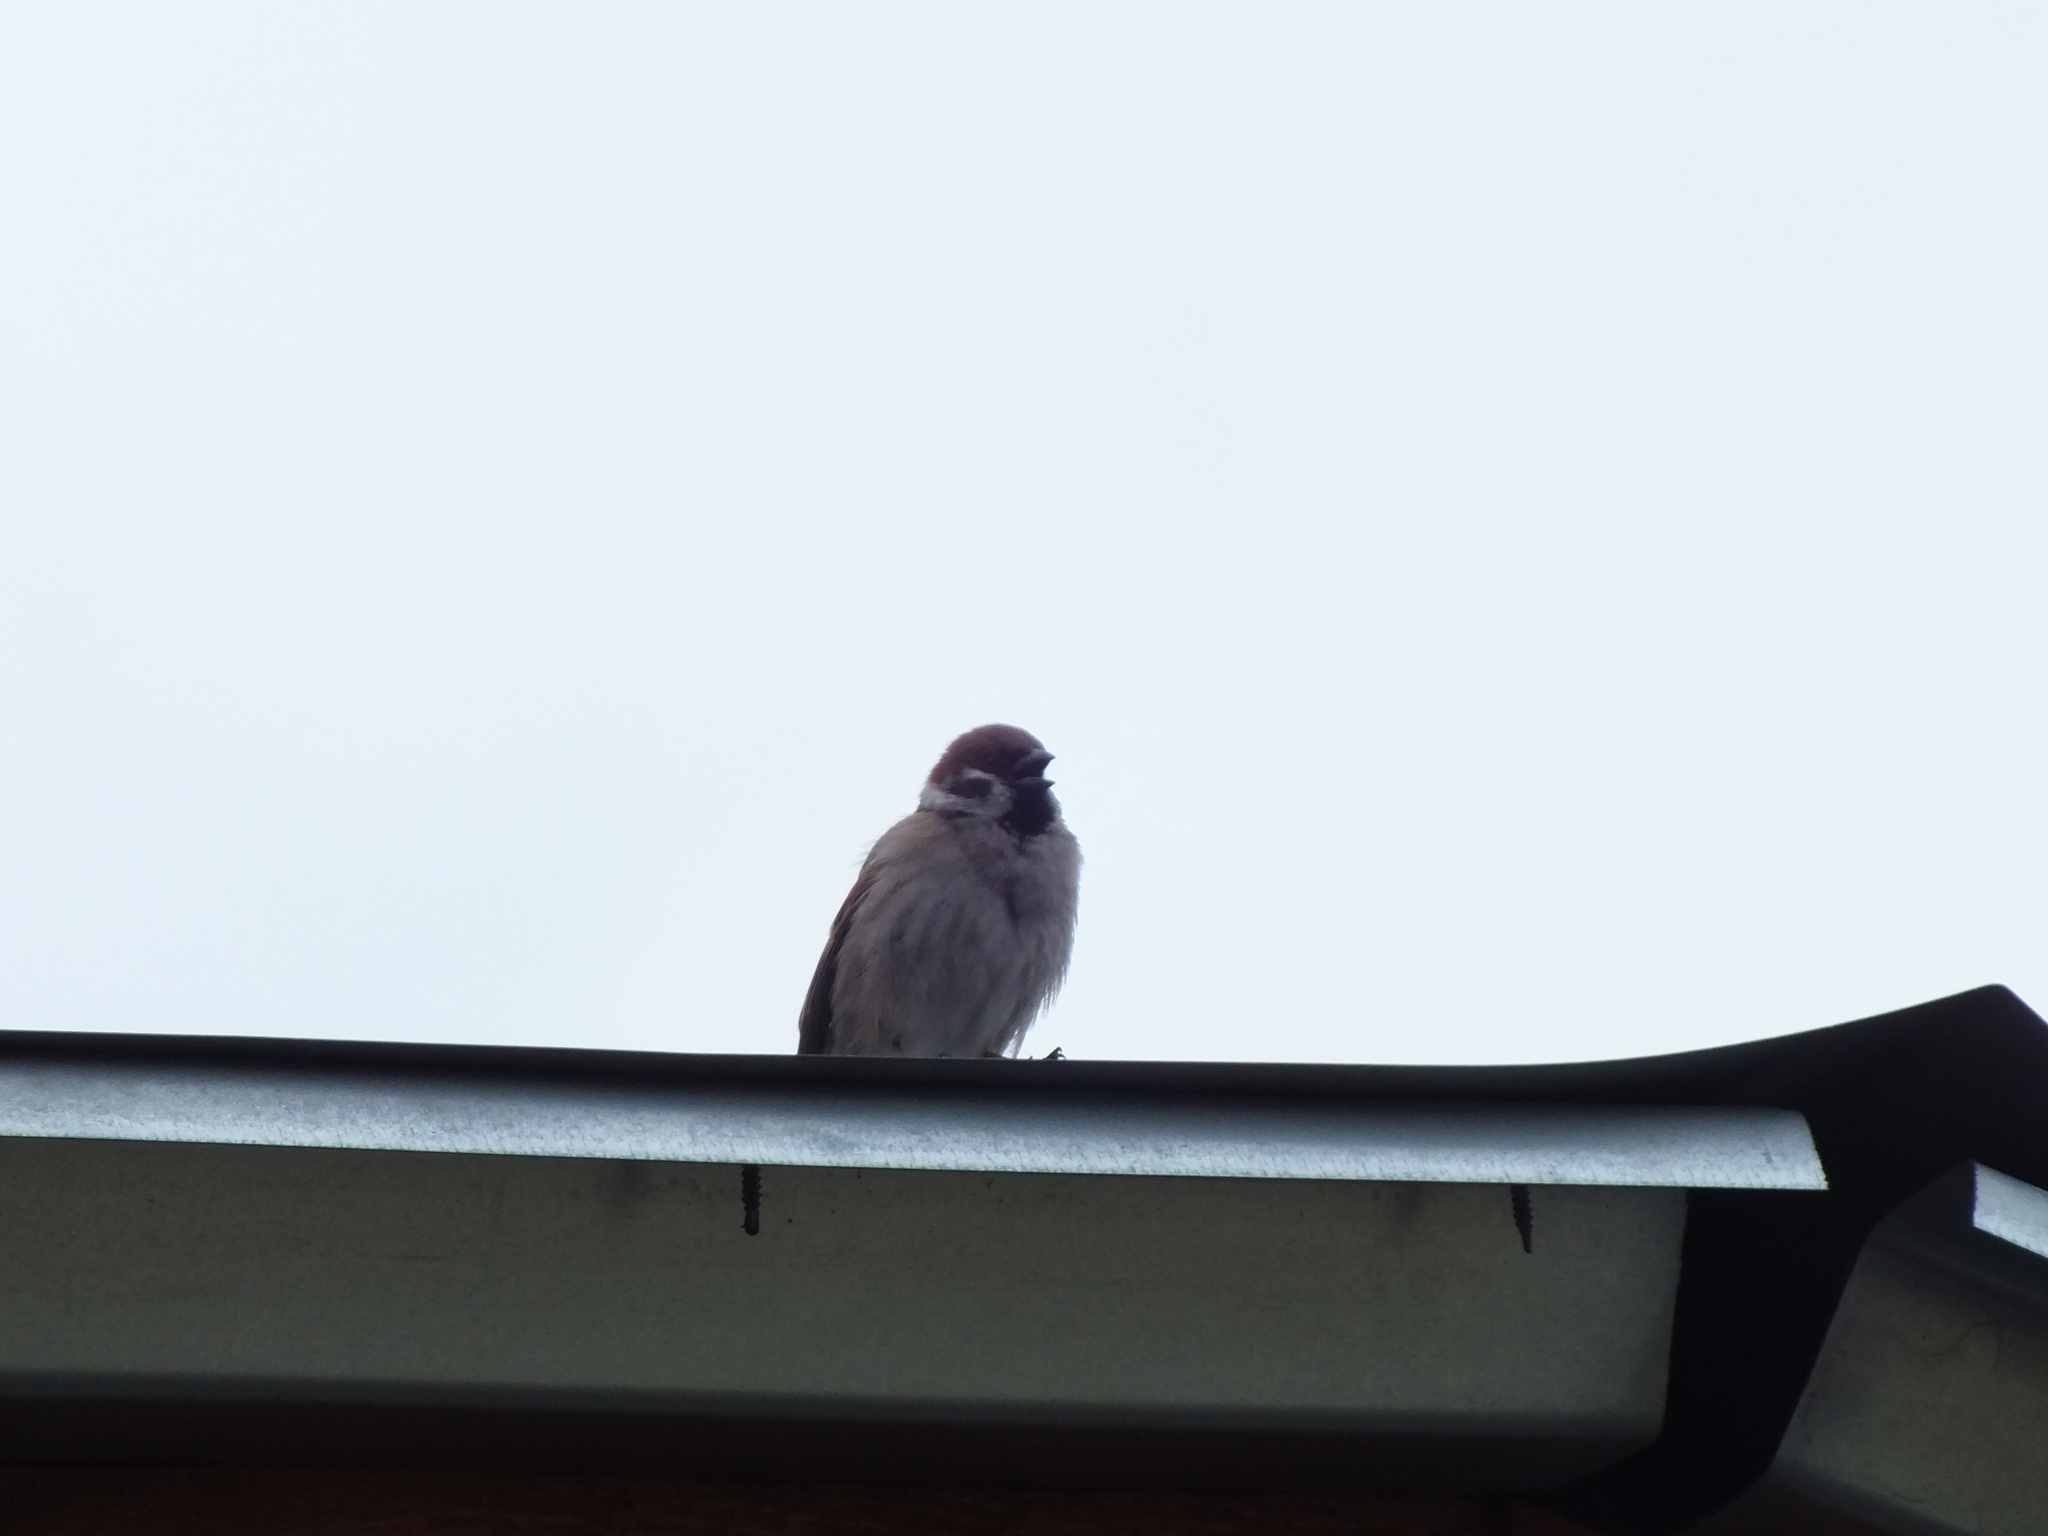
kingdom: Animalia
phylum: Chordata
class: Aves
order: Passeriformes
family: Passeridae
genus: Passer
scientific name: Passer montanus
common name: Eurasian tree sparrow
